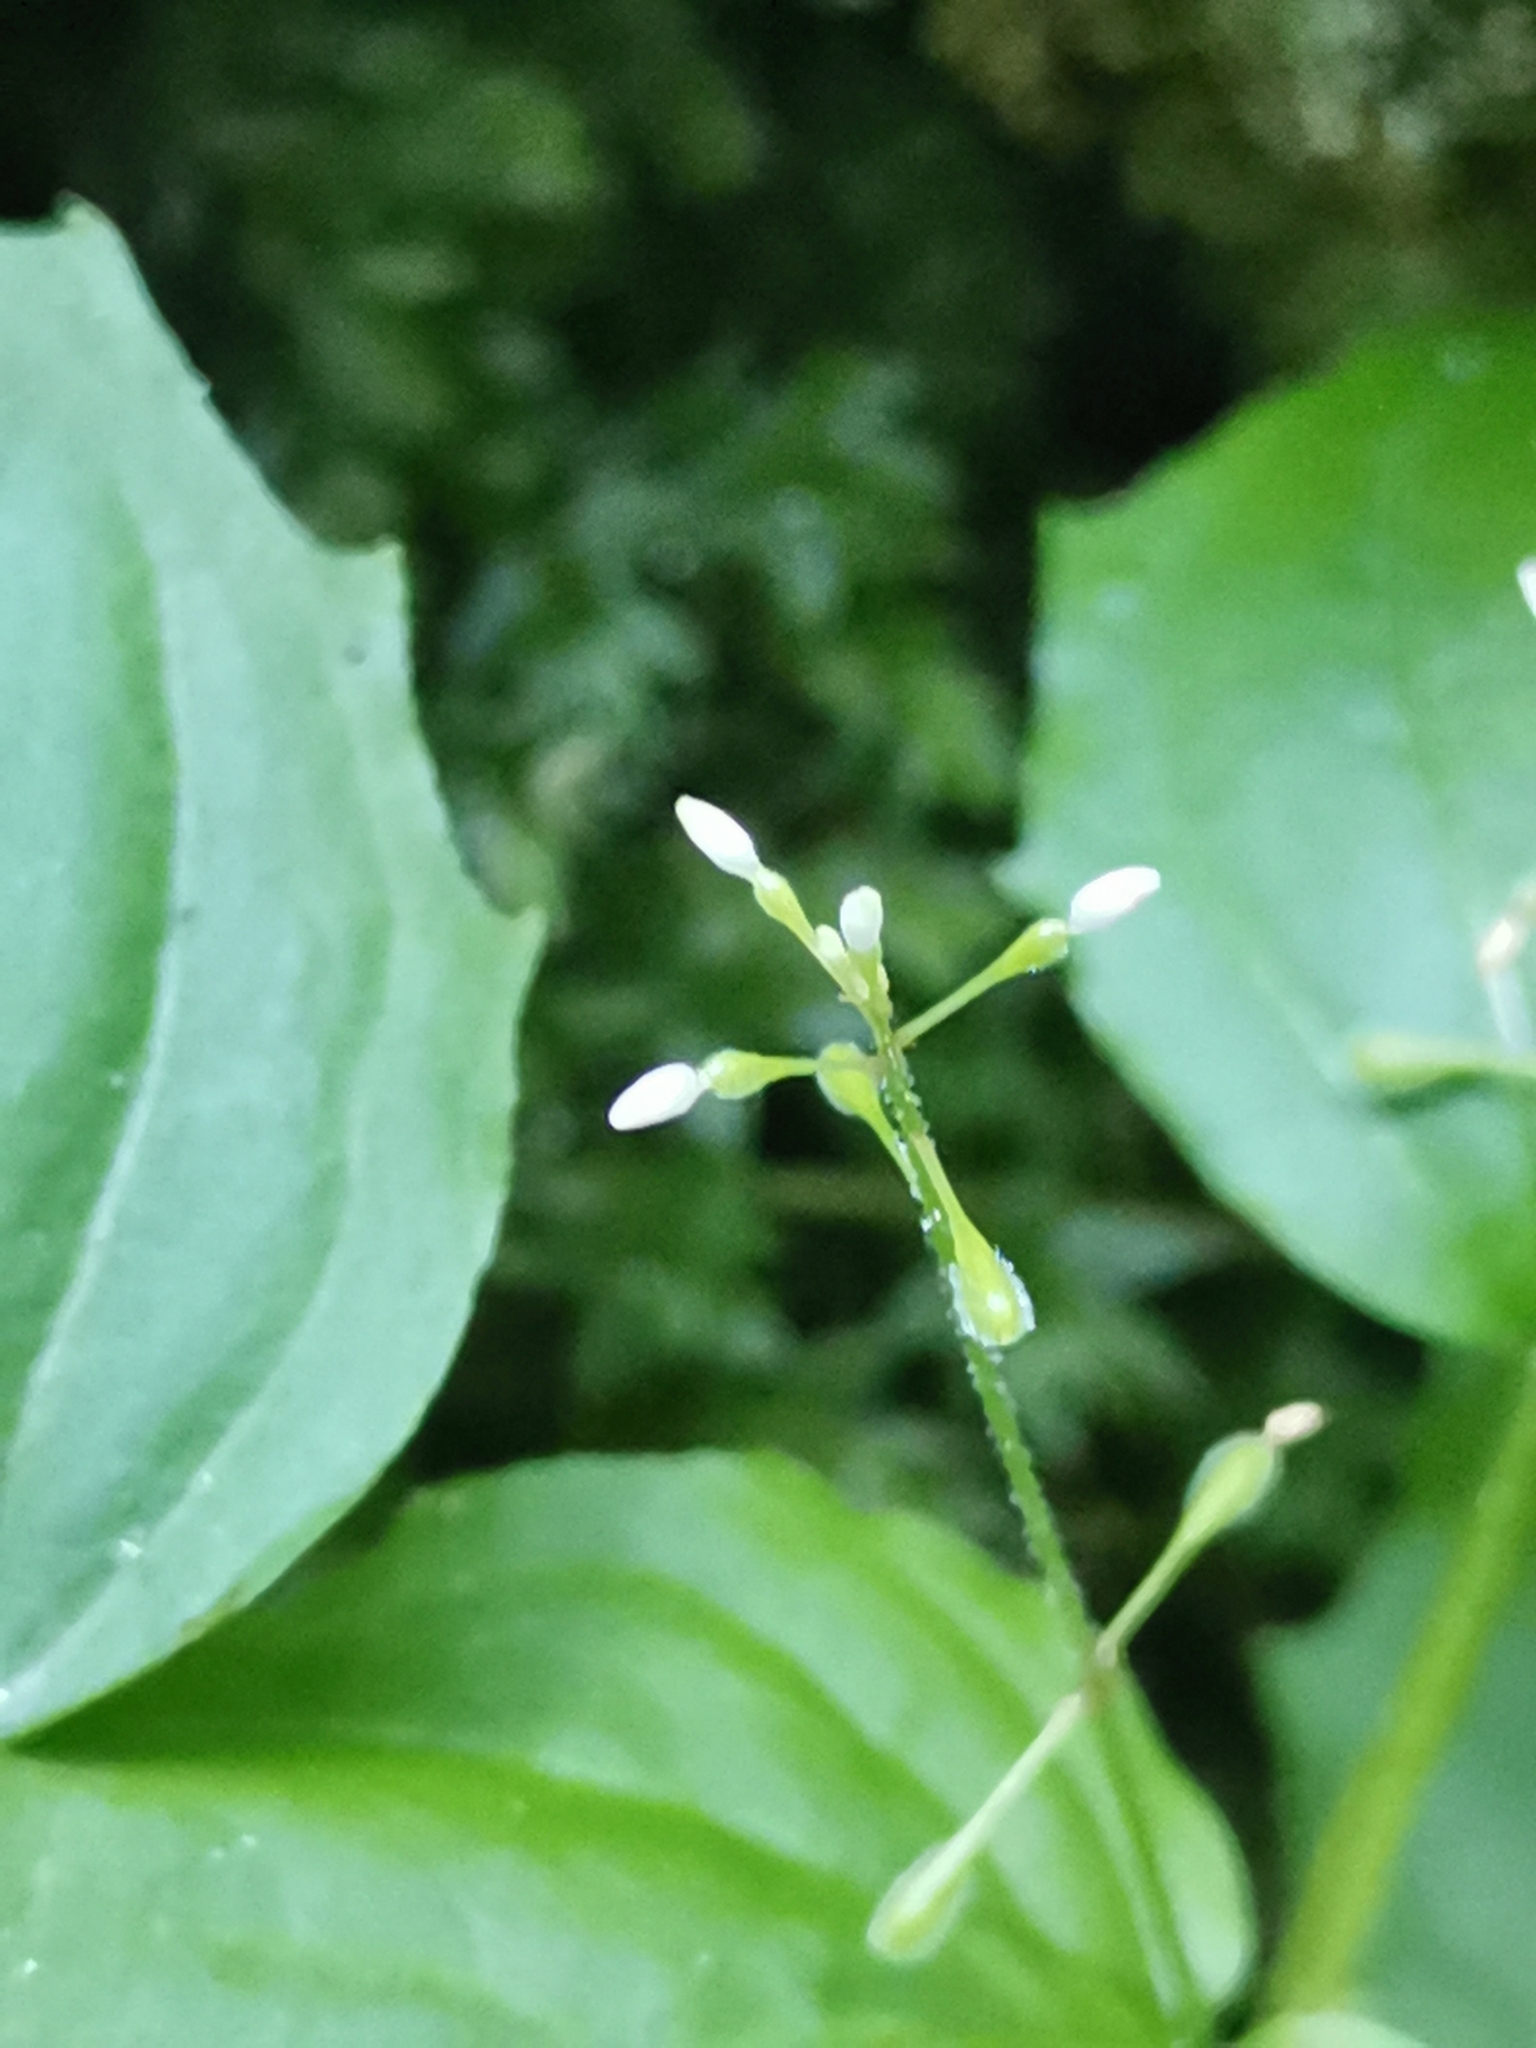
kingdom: Plantae
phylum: Tracheophyta
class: Magnoliopsida
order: Myrtales
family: Onagraceae
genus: Circaea
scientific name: Circaea alpina
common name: Alpine enchanter's-nightshade
